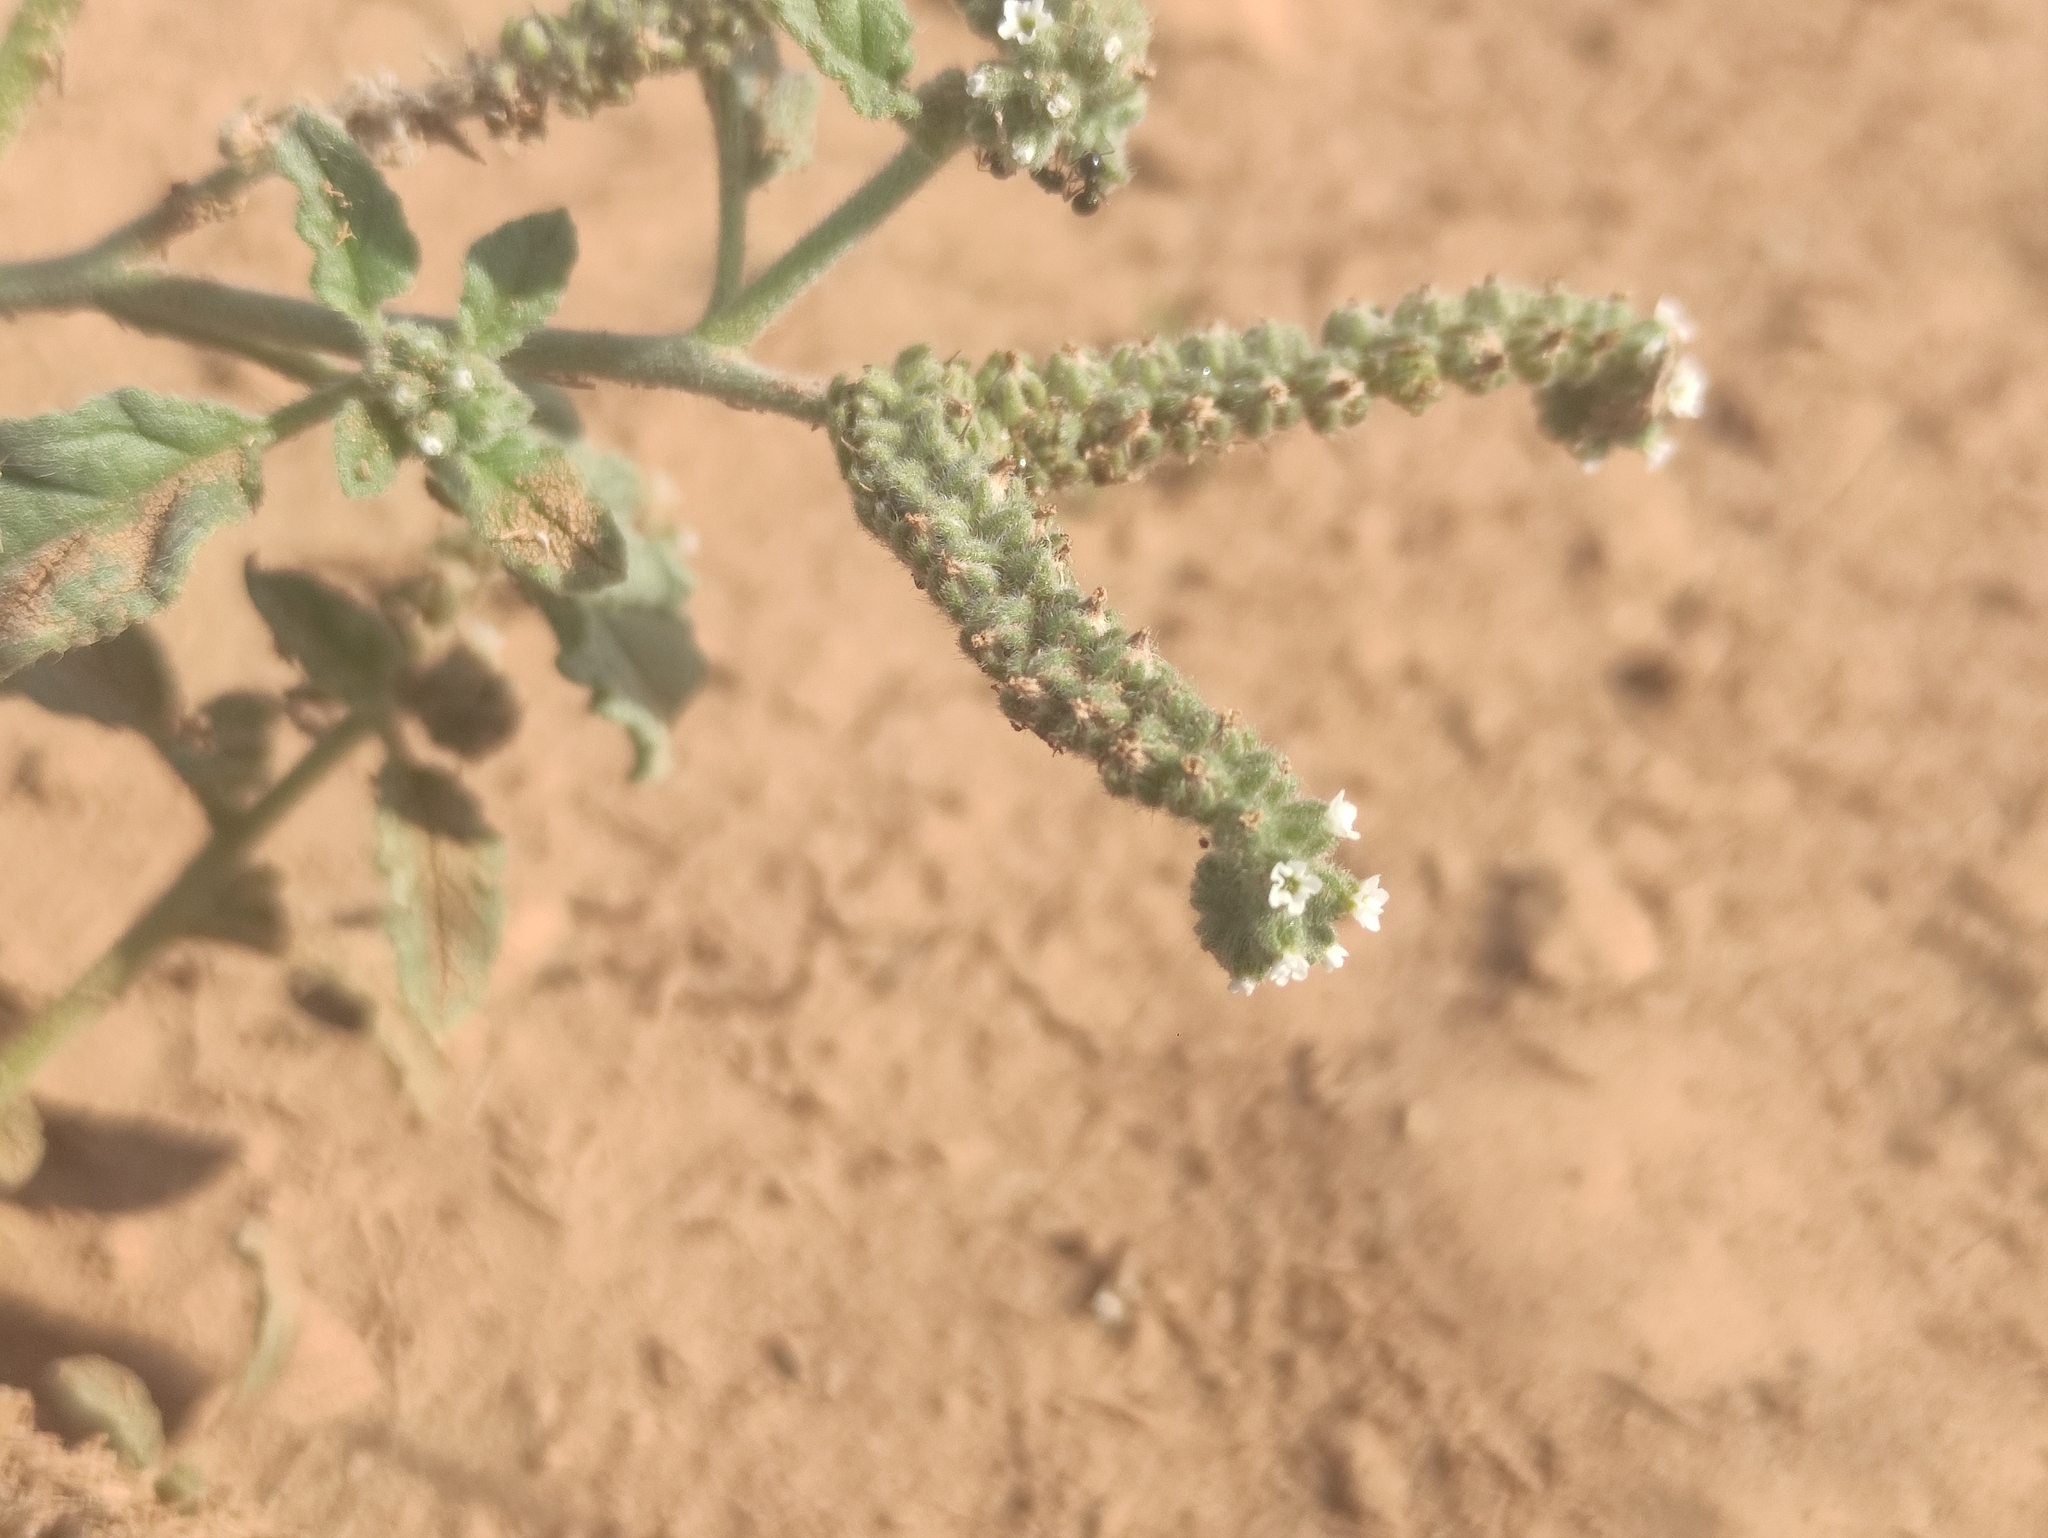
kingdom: Plantae
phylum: Tracheophyta
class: Magnoliopsida
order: Boraginales
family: Heliotropiaceae
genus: Heliotropium
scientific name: Heliotropium europaeum
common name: European heliotrope
